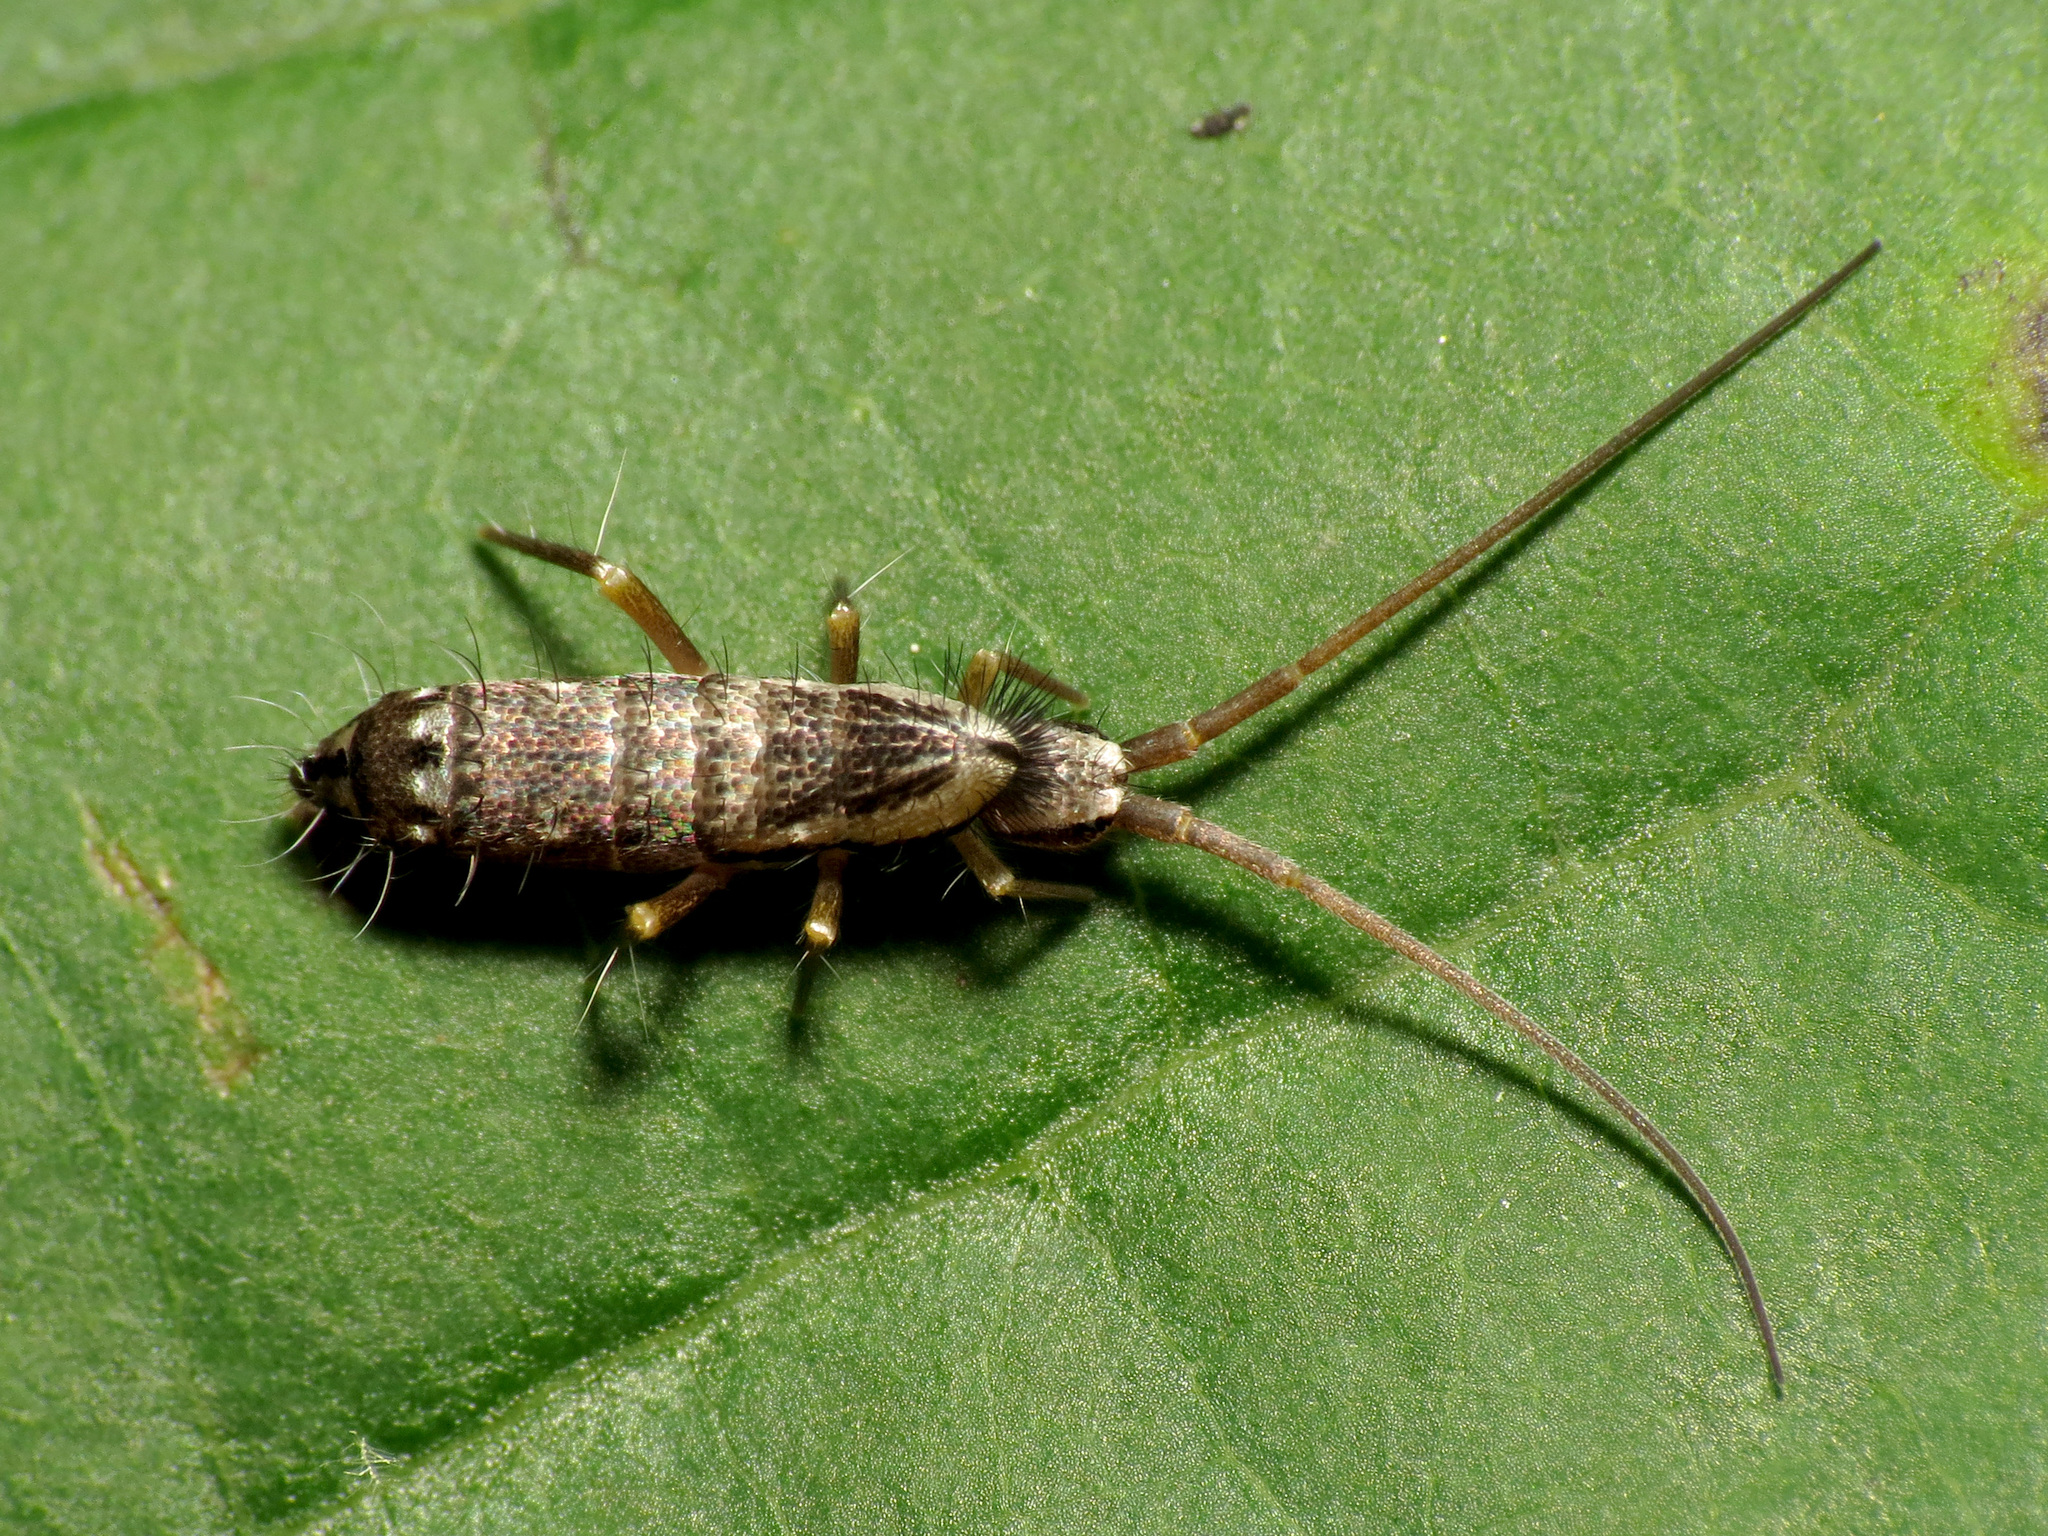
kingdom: Animalia
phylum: Arthropoda
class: Collembola
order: Entomobryomorpha
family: Tomoceridae
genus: Pogonognathellus
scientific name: Pogonognathellus elongatus
